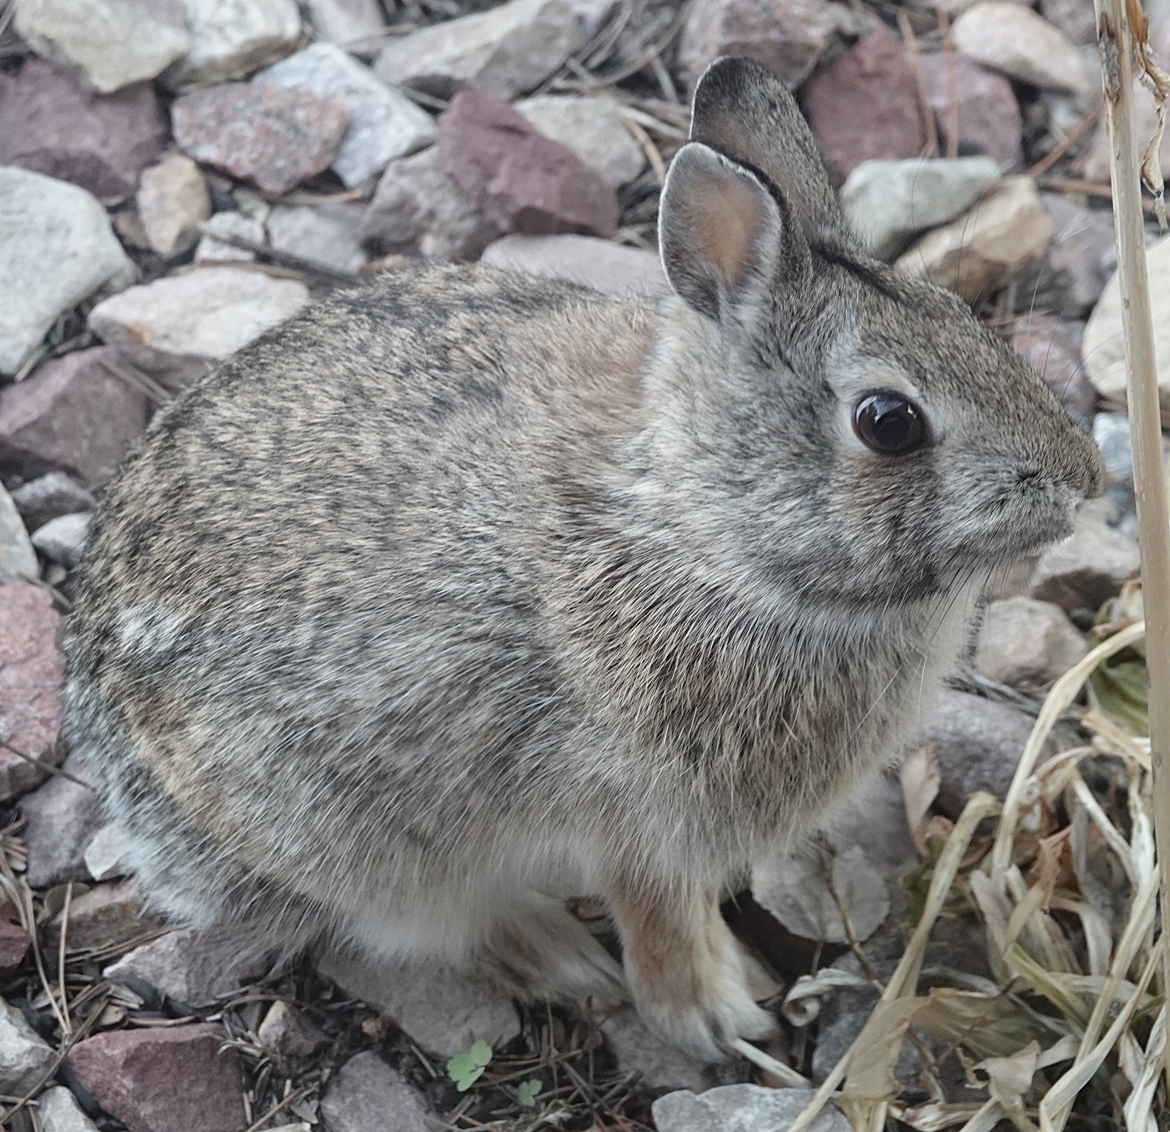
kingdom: Animalia
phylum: Chordata
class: Mammalia
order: Lagomorpha
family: Leporidae
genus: Sylvilagus
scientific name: Sylvilagus floridanus
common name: Eastern cottontail
